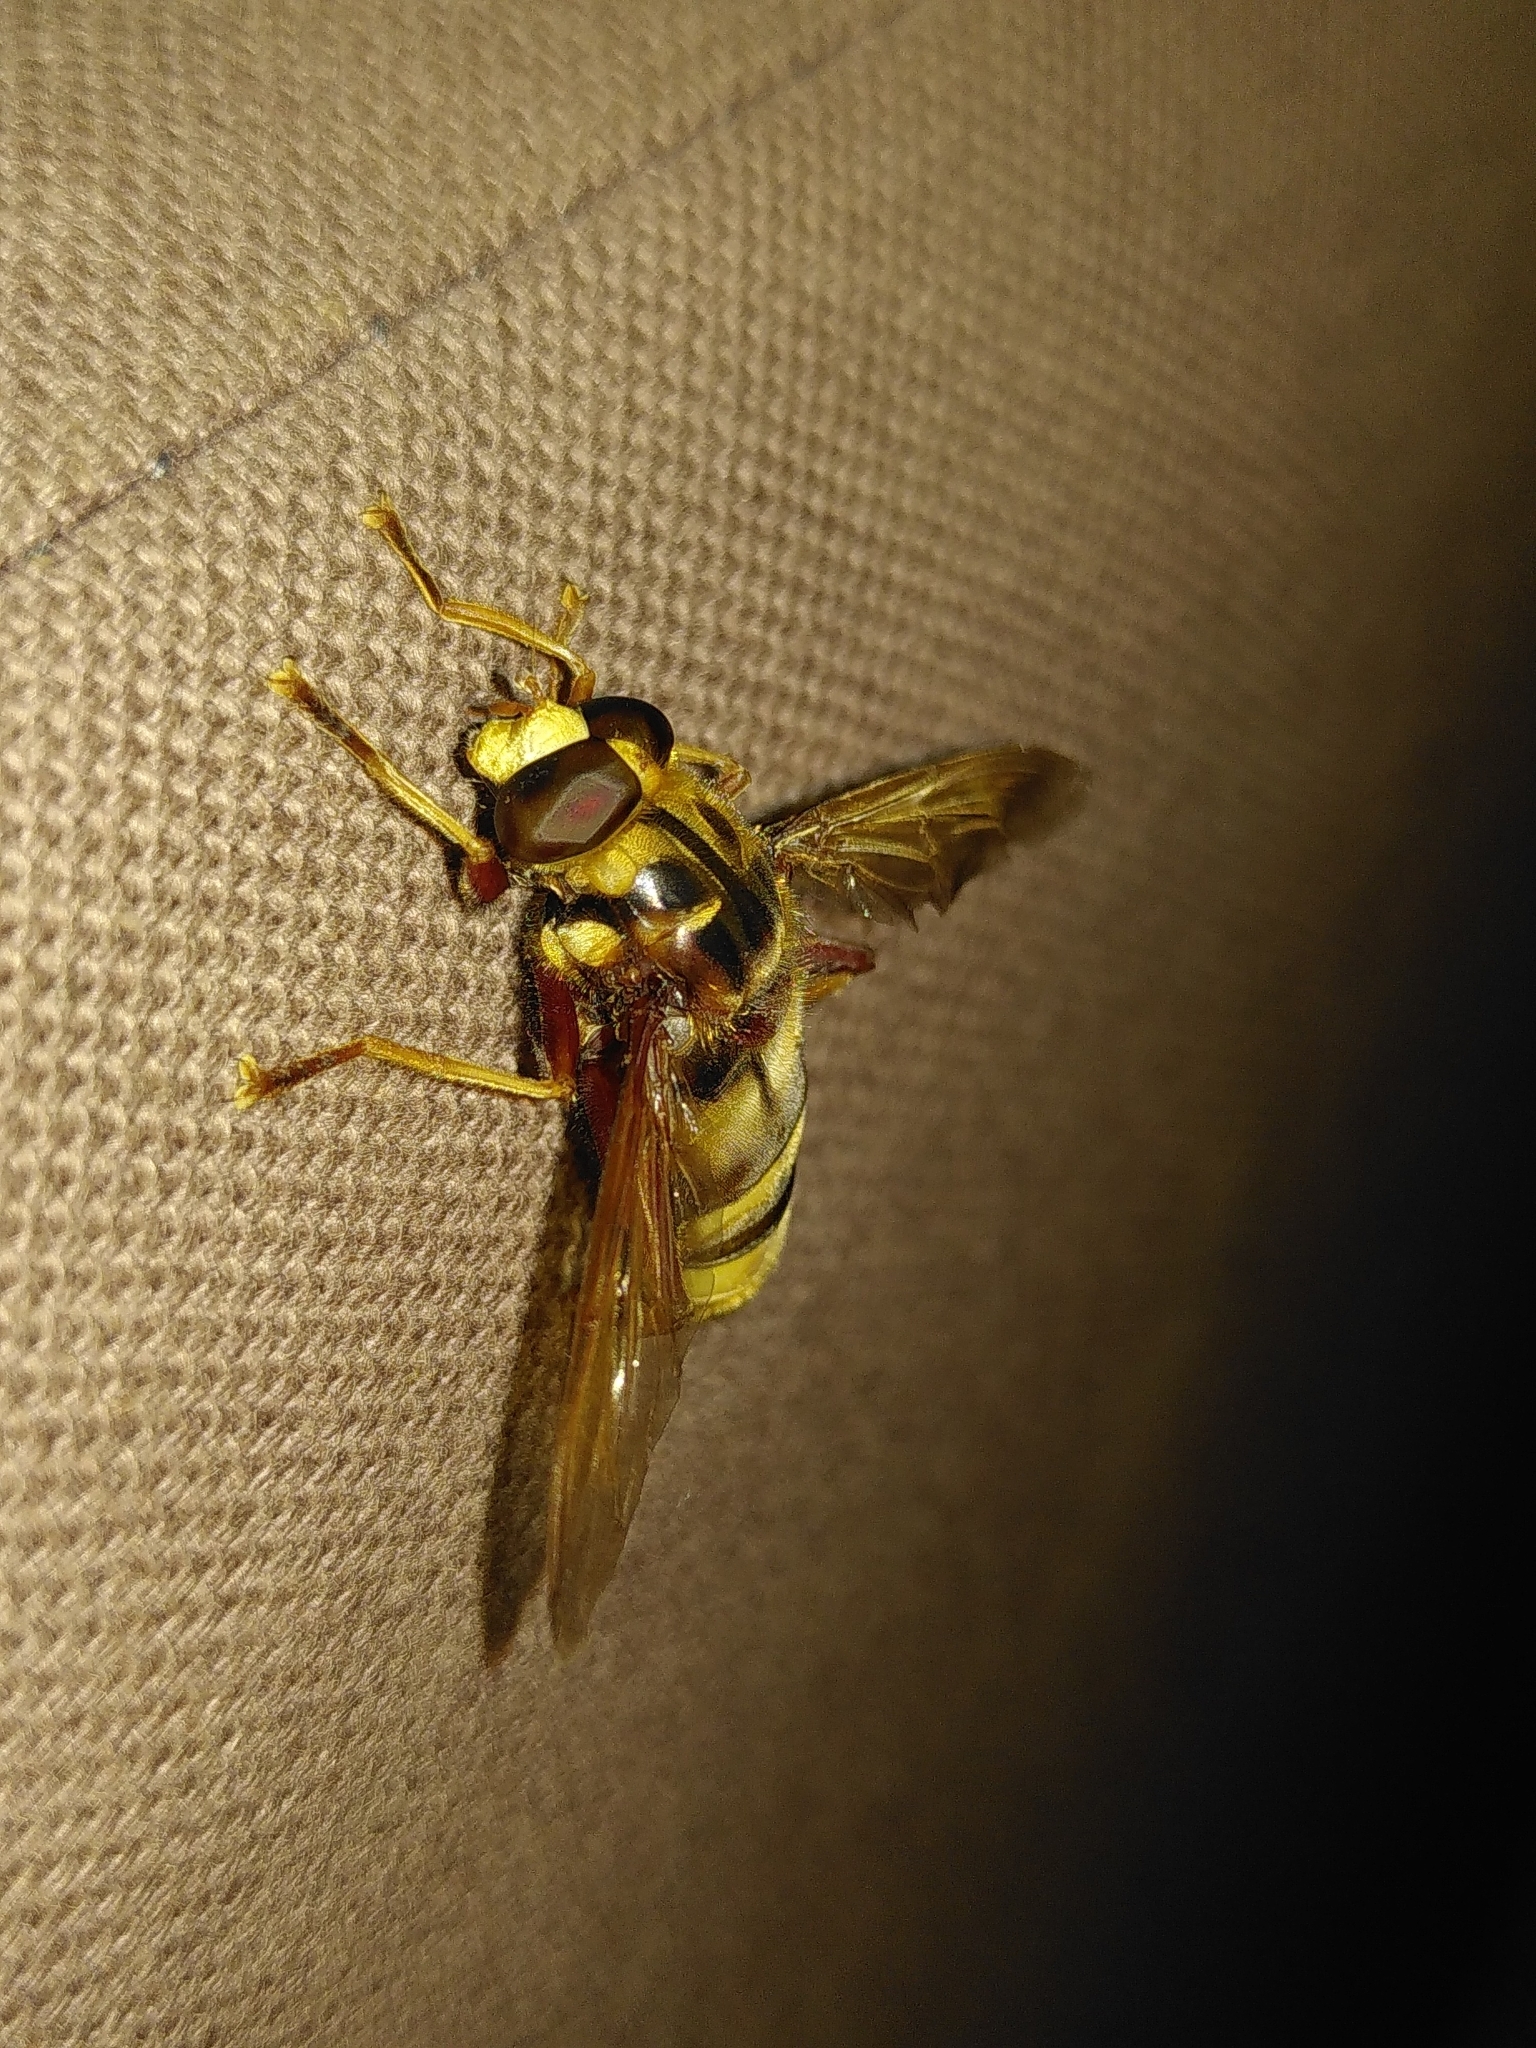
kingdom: Animalia
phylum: Arthropoda
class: Insecta
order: Diptera
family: Syrphidae
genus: Milesia
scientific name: Milesia crabroniformis
